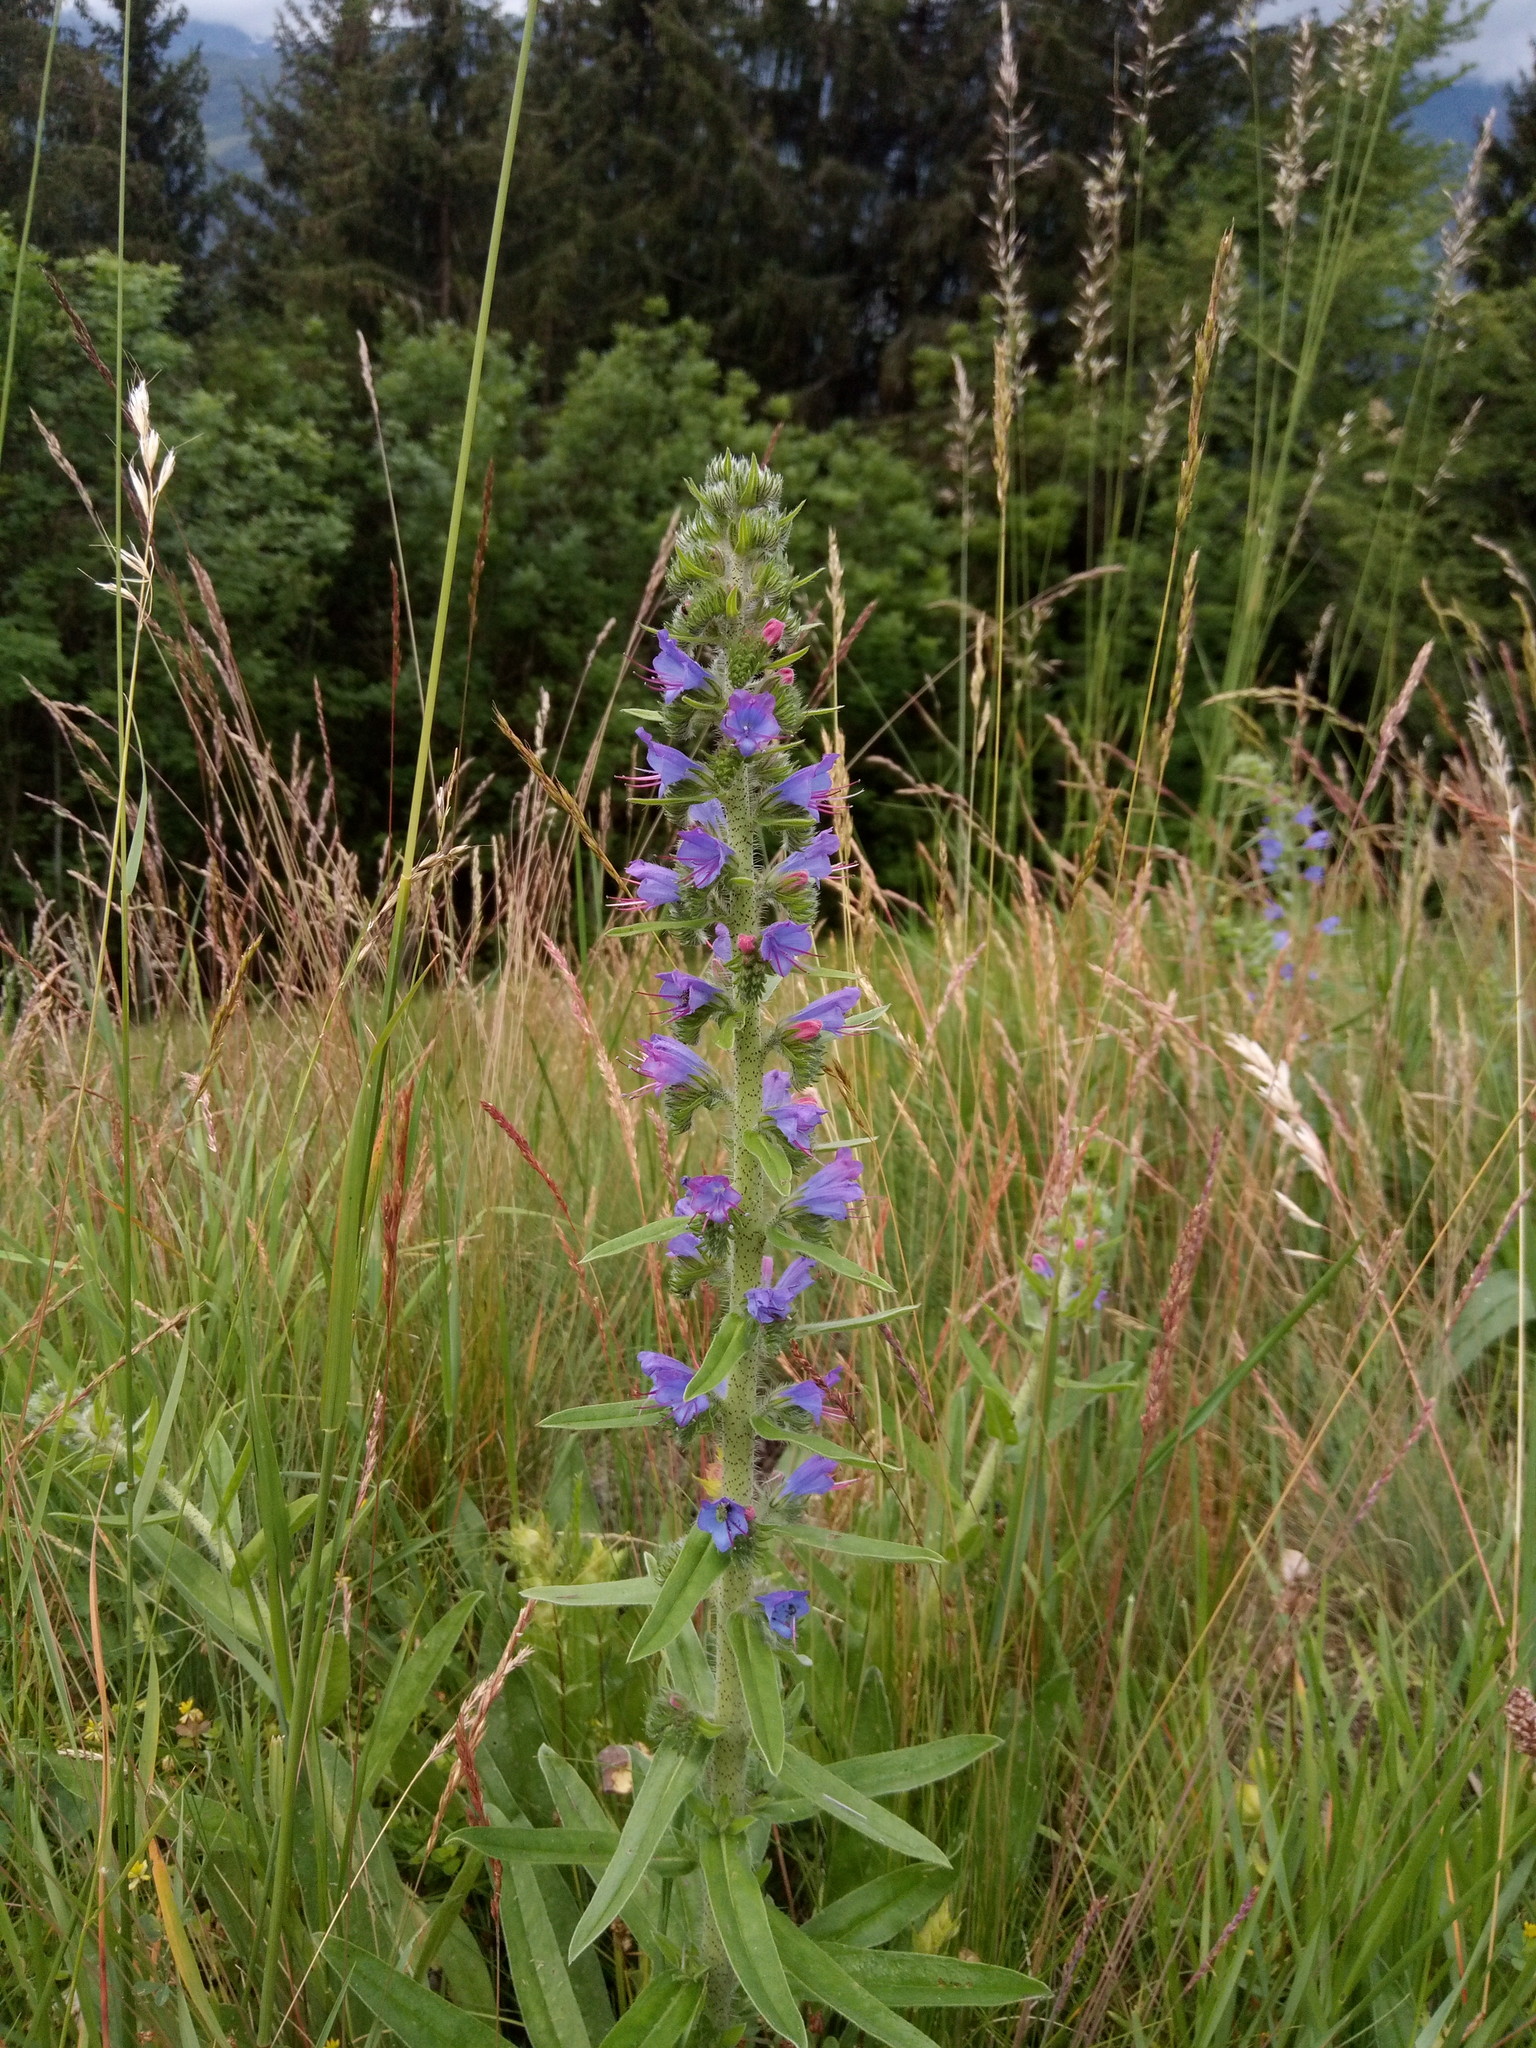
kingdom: Plantae
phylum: Tracheophyta
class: Magnoliopsida
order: Boraginales
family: Boraginaceae
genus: Echium
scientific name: Echium vulgare
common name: Common viper's bugloss
